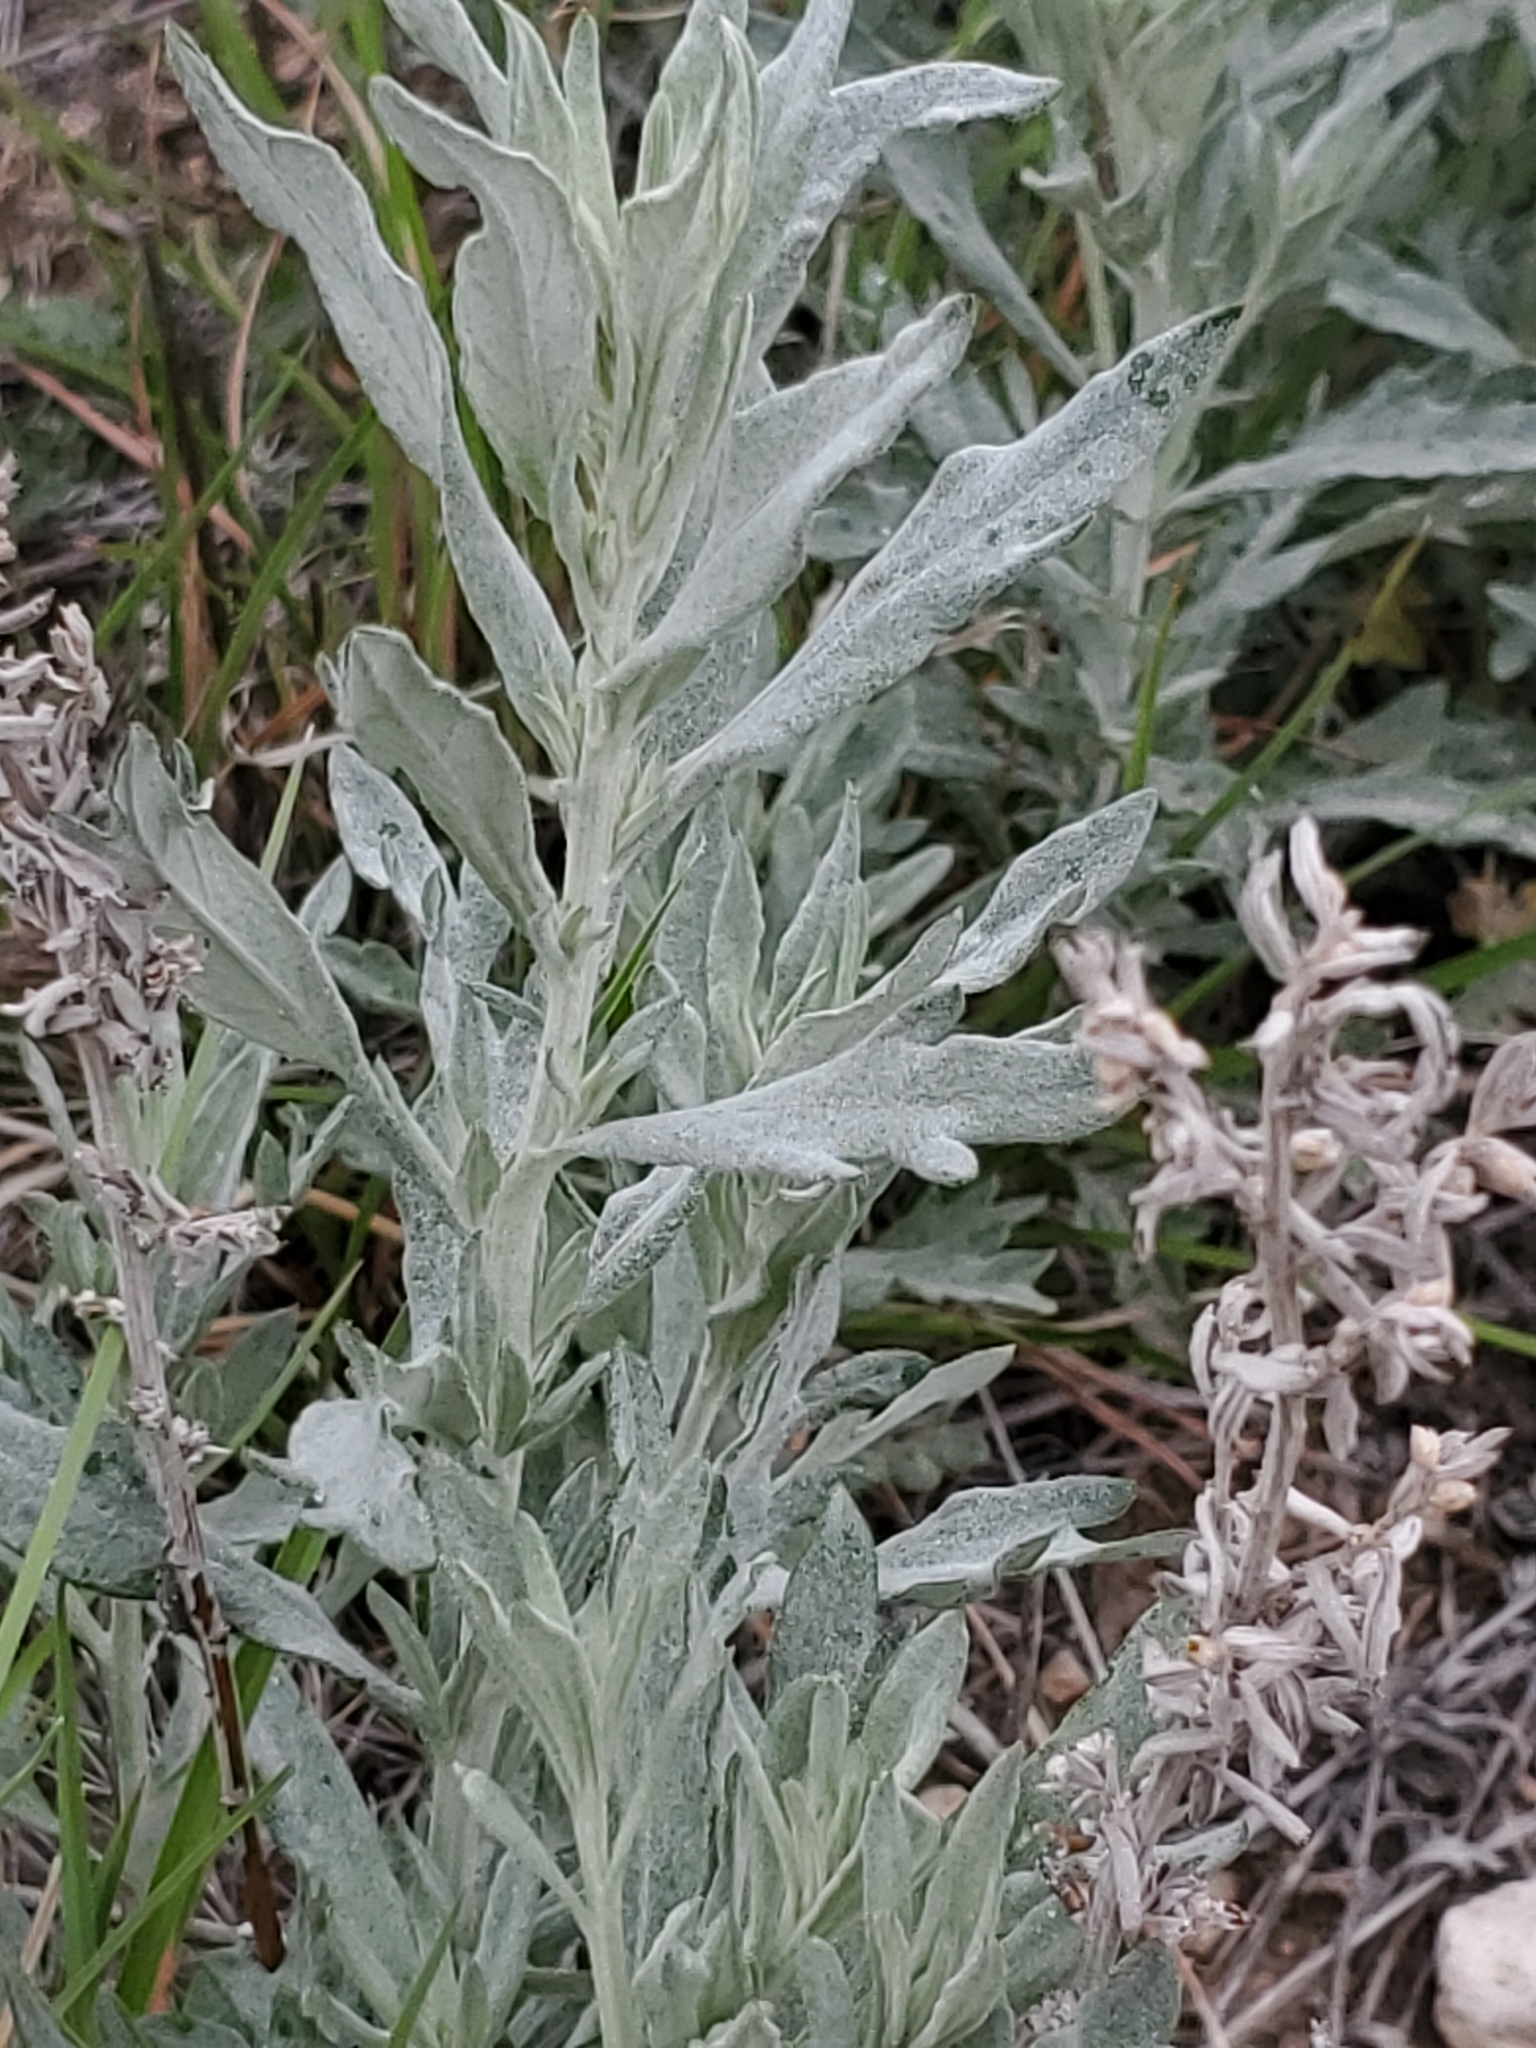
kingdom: Plantae
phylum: Tracheophyta
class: Magnoliopsida
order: Asterales
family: Asteraceae
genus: Artemisia
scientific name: Artemisia ludoviciana
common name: Western mugwort
